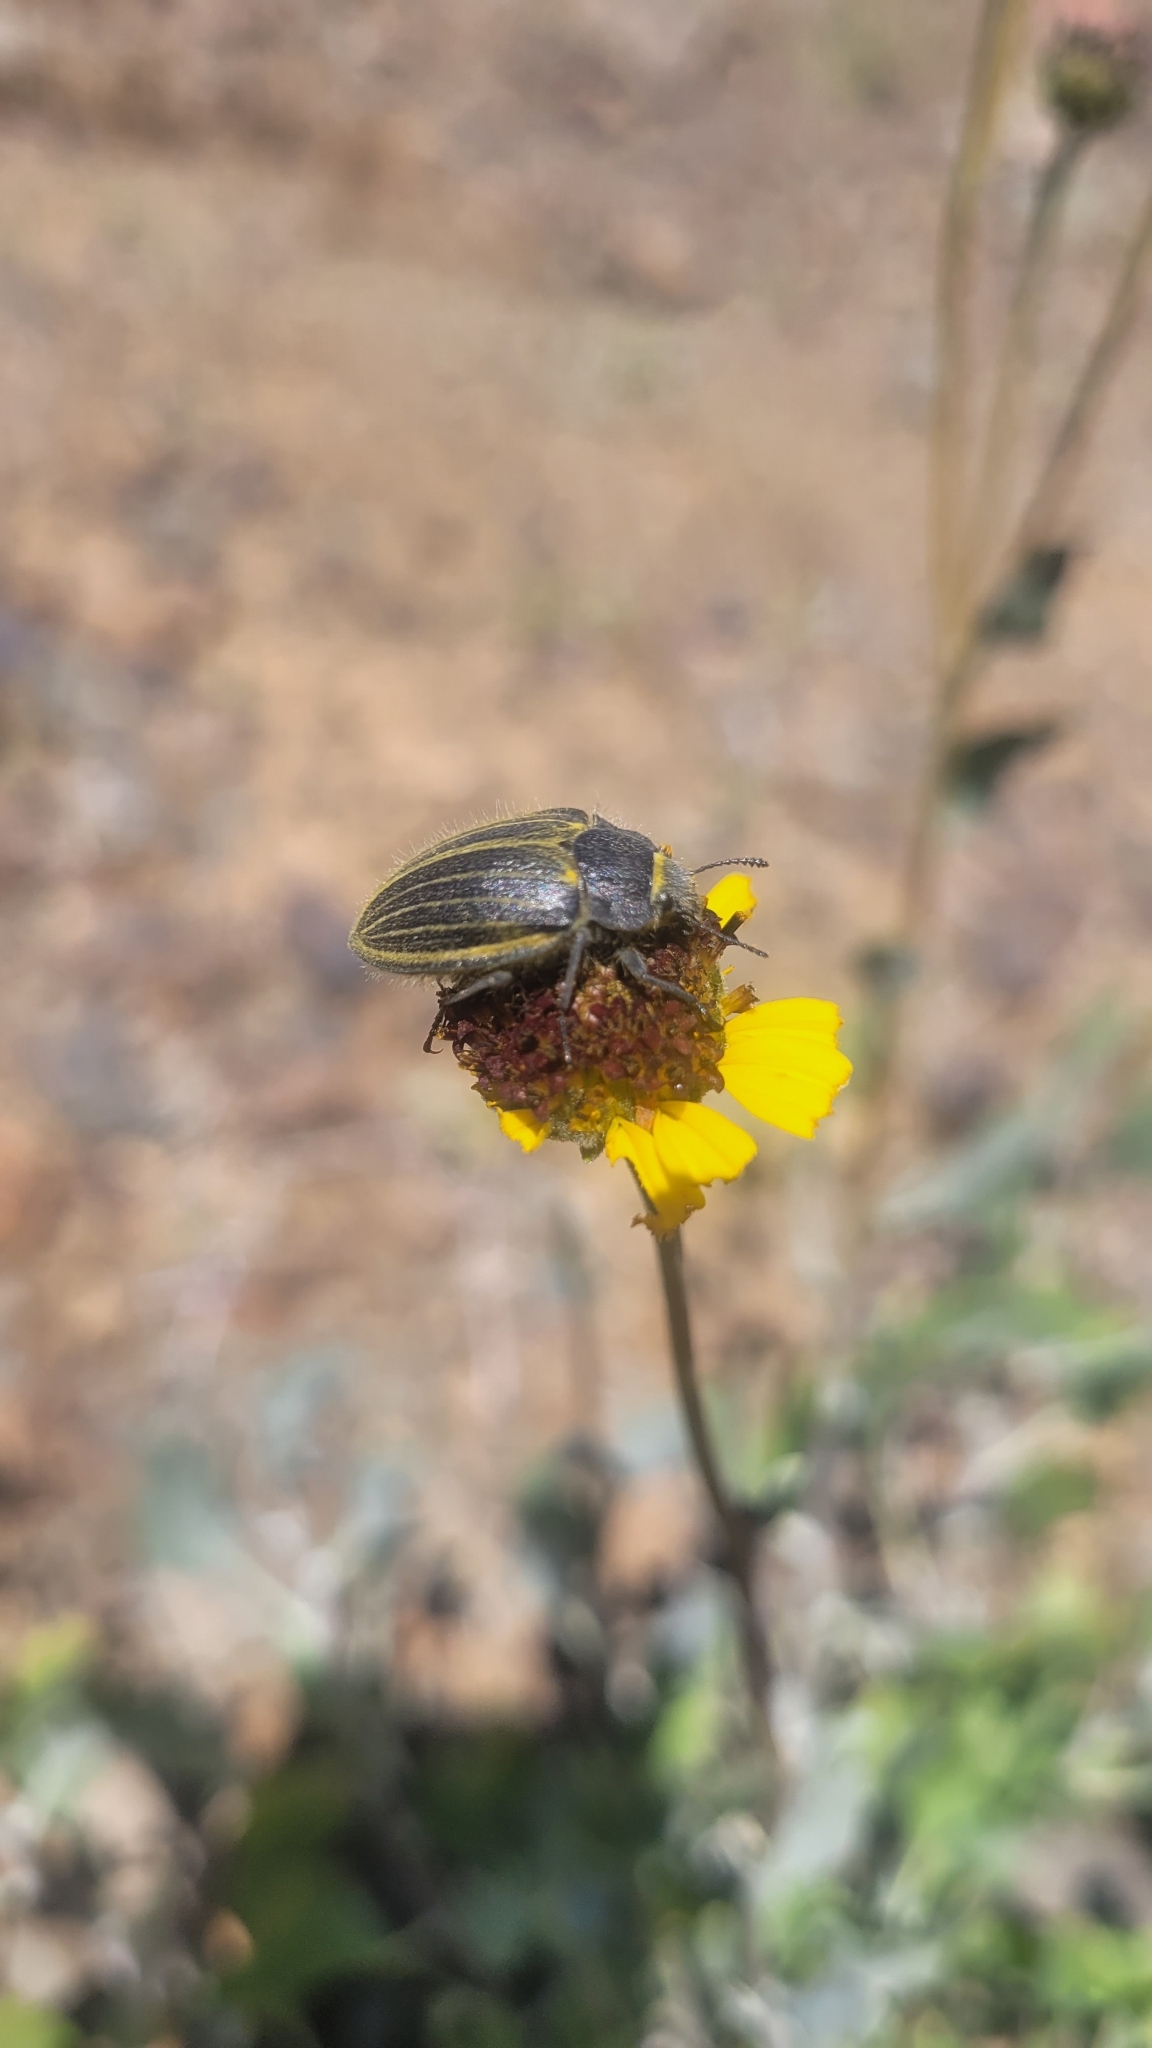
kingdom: Animalia
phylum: Arthropoda
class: Insecta
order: Coleoptera
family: Tenebrionidae
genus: Geoborus
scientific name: Geoborus
